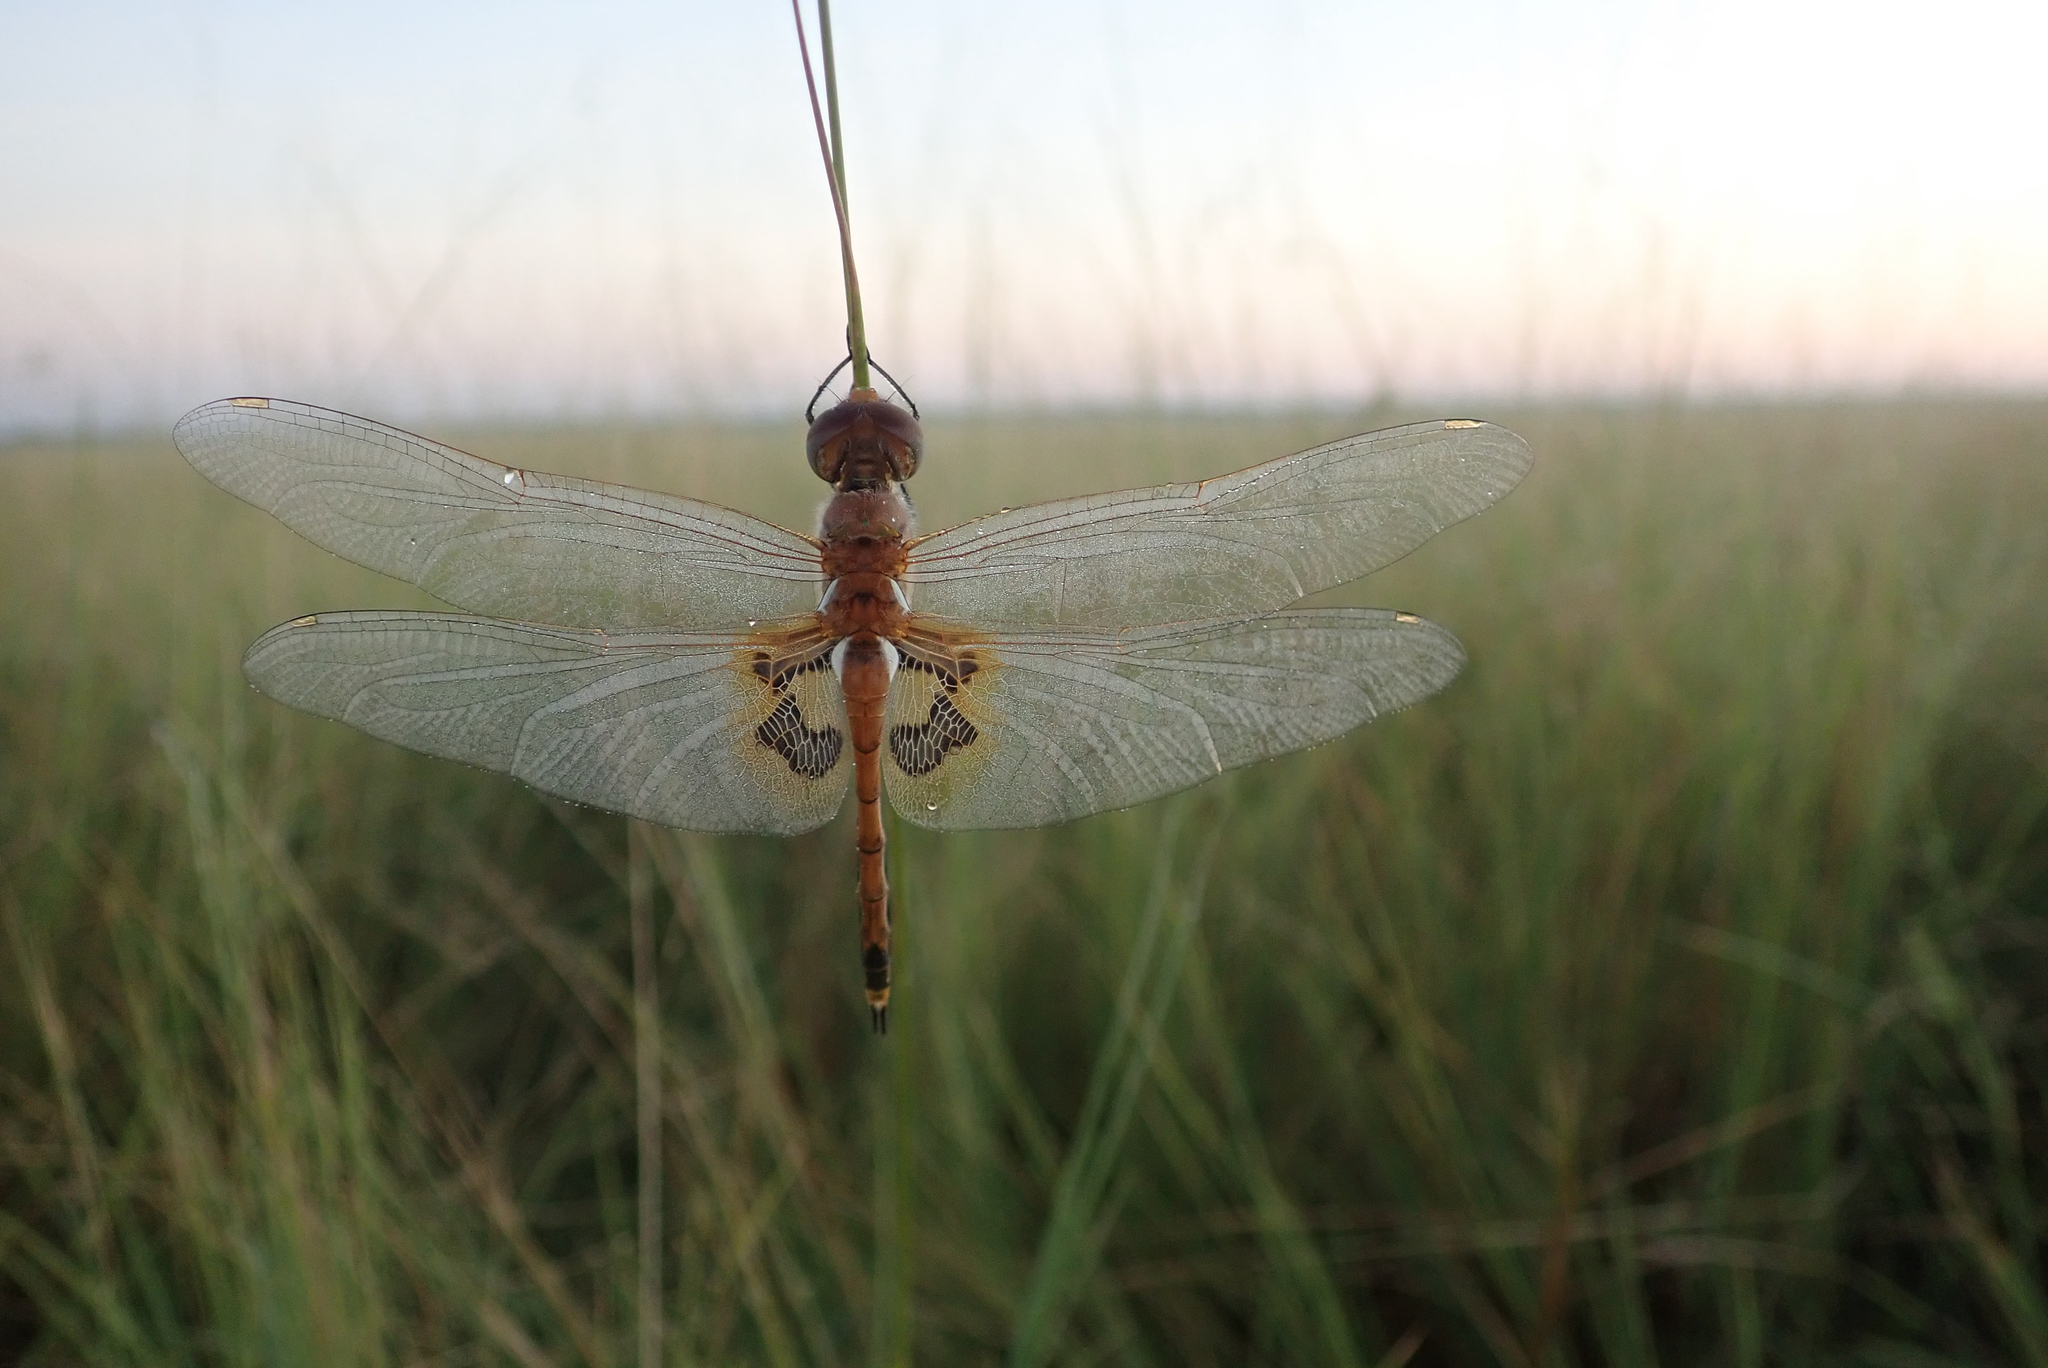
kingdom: Animalia
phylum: Arthropoda
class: Insecta
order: Odonata
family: Libellulidae
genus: Tramea
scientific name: Tramea basilaris
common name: Keyhole glider
